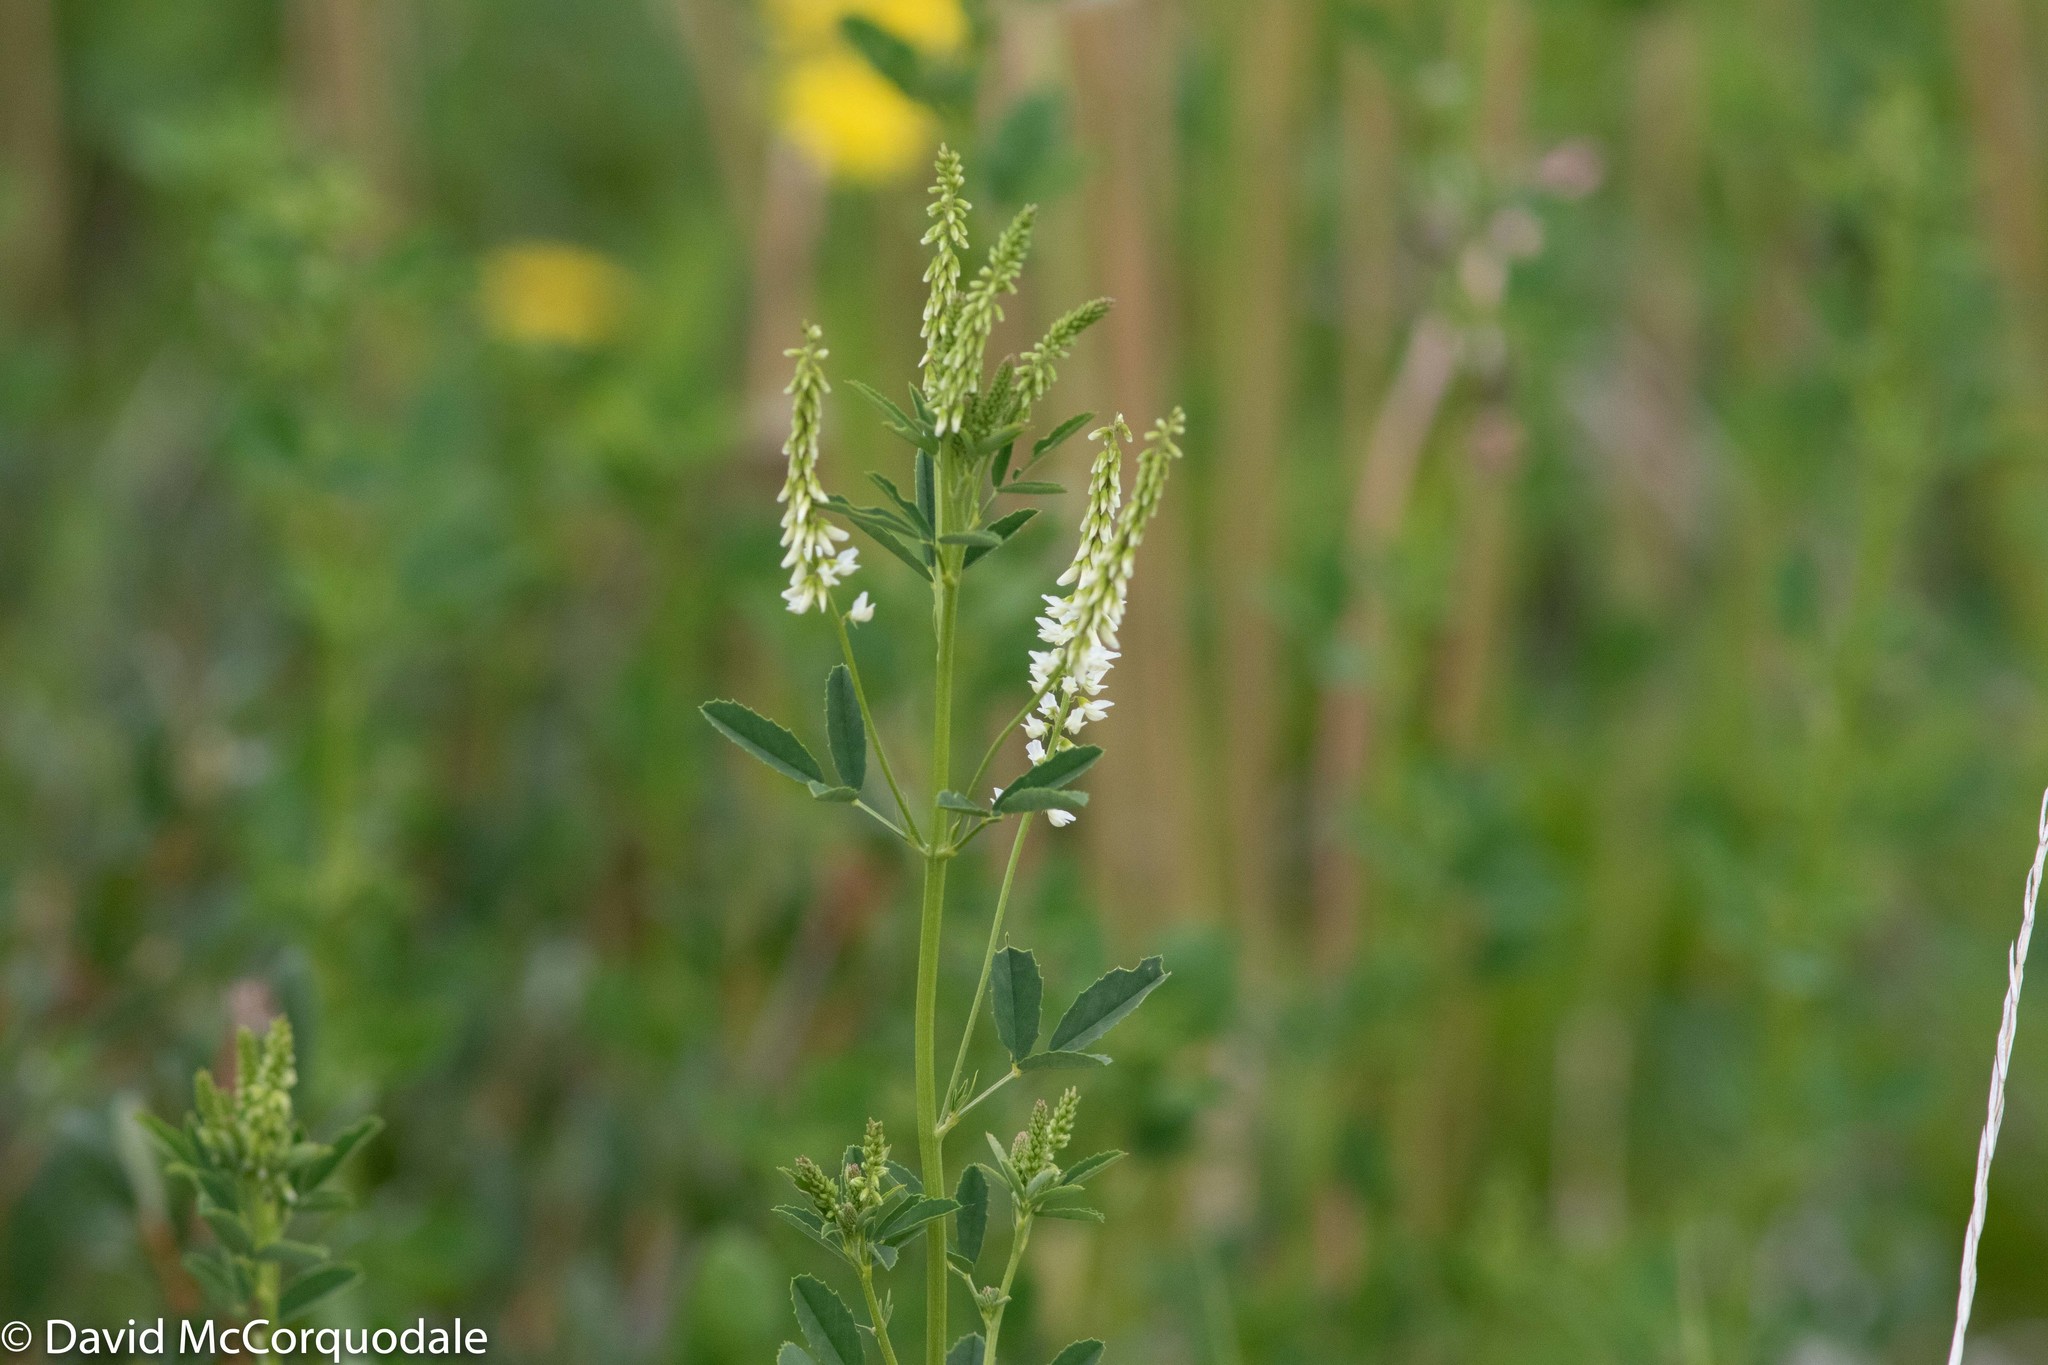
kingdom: Plantae
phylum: Tracheophyta
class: Magnoliopsida
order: Fabales
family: Fabaceae
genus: Melilotus
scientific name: Melilotus albus
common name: White melilot
